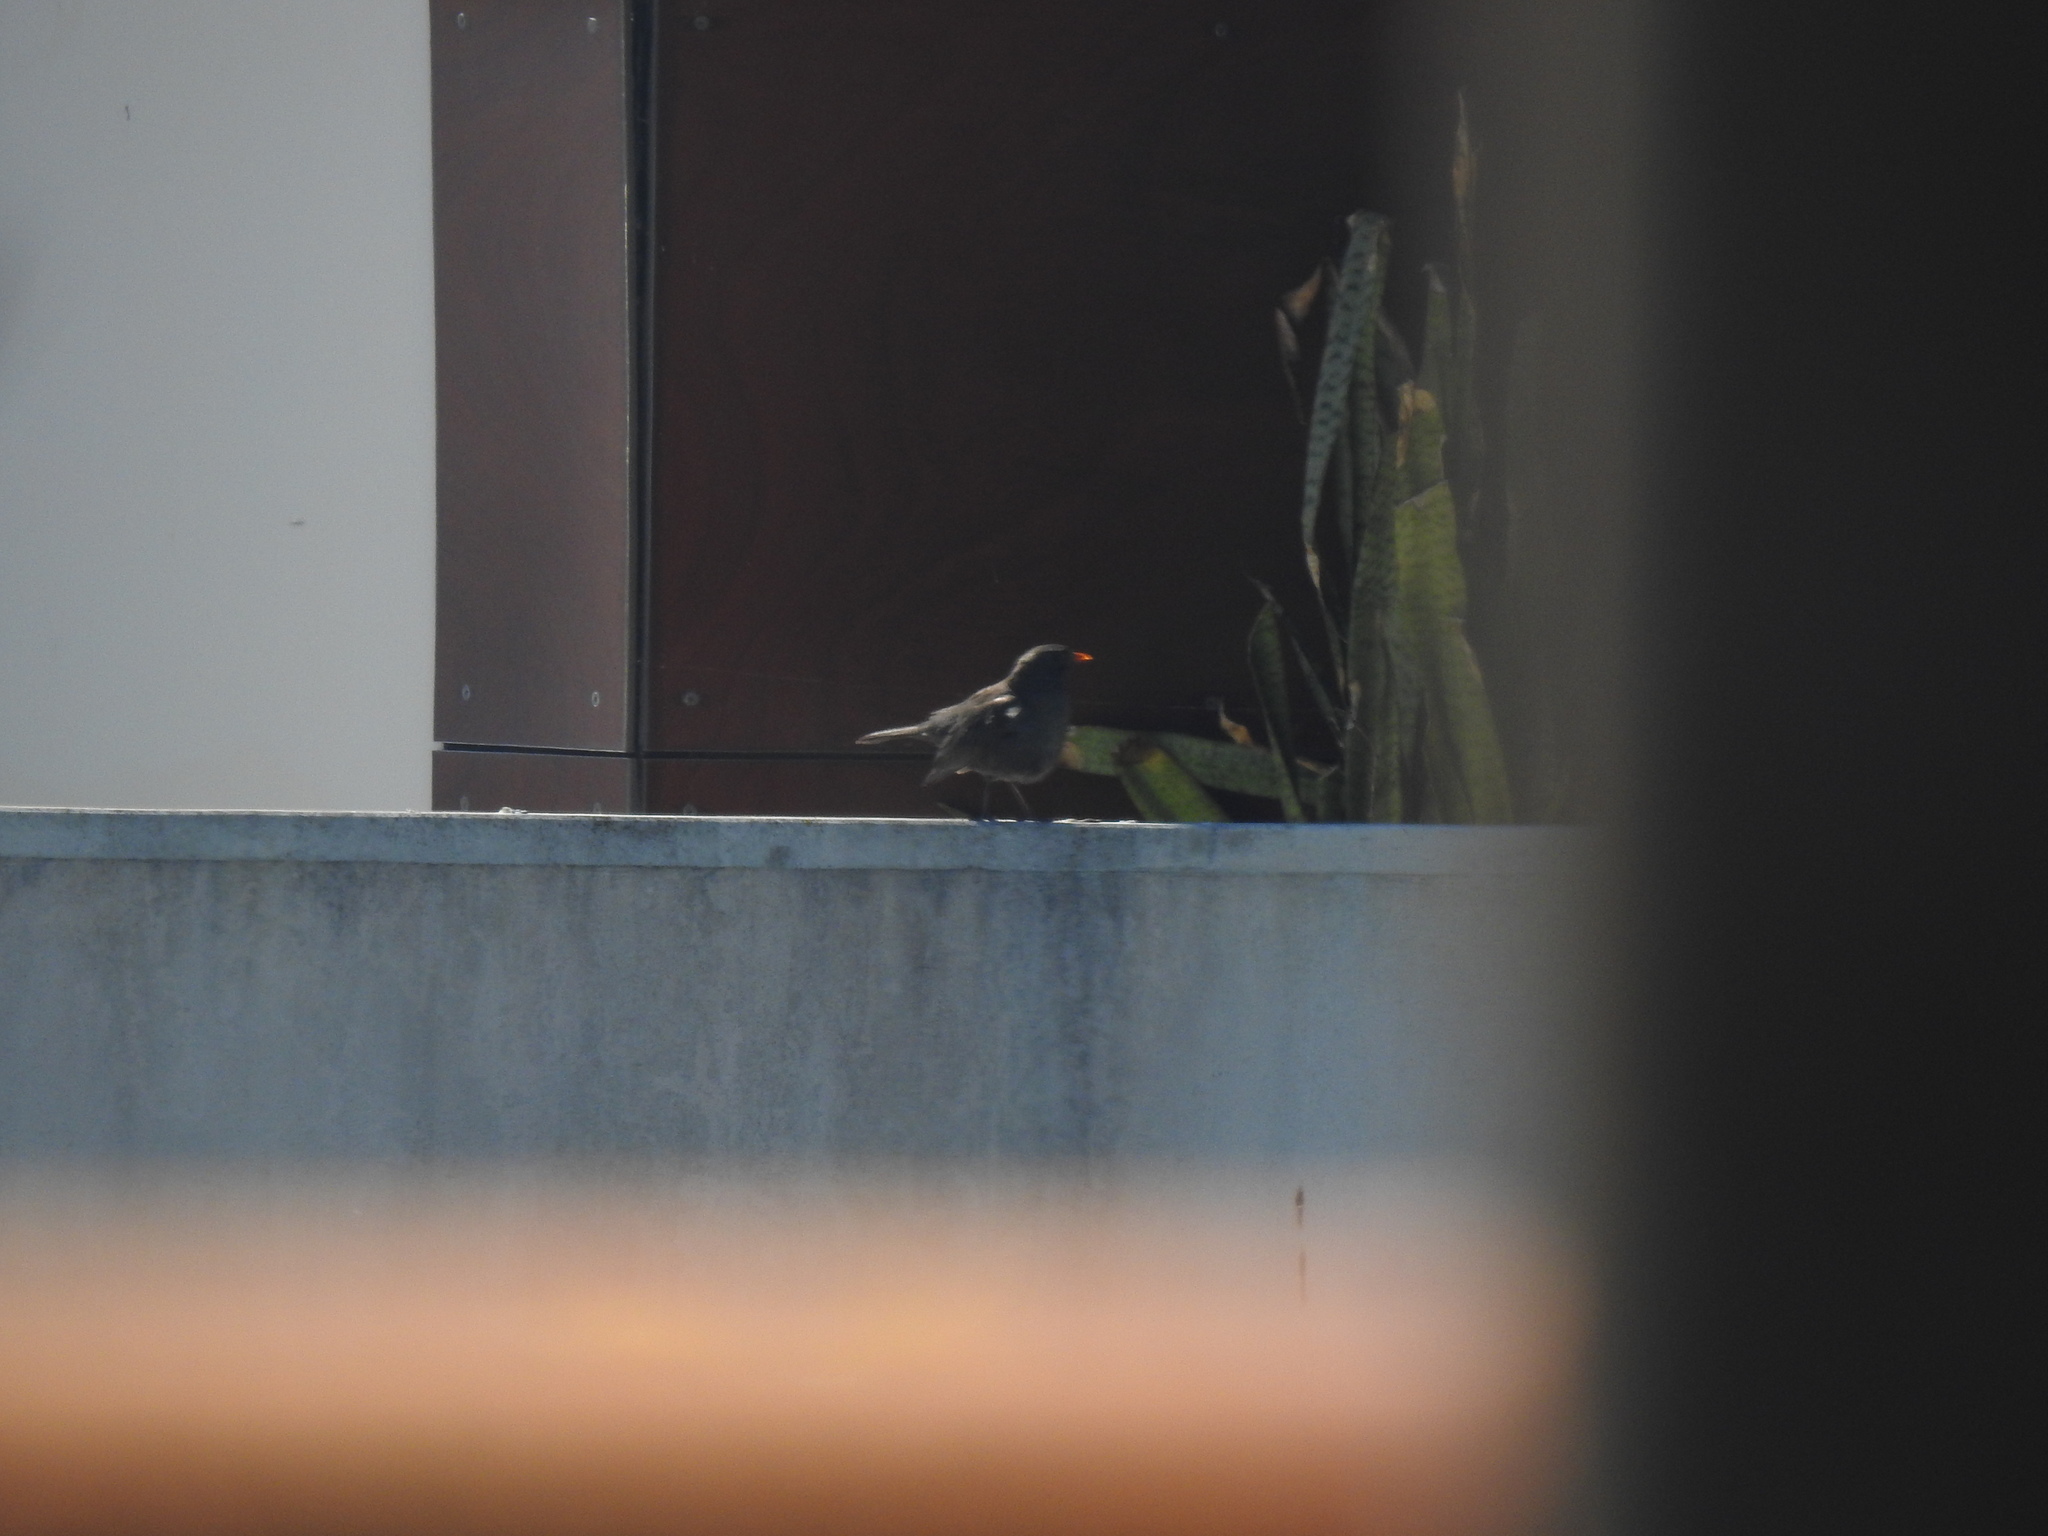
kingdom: Animalia
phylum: Chordata
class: Aves
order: Passeriformes
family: Turdidae
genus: Turdus
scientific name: Turdus merula
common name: Common blackbird
